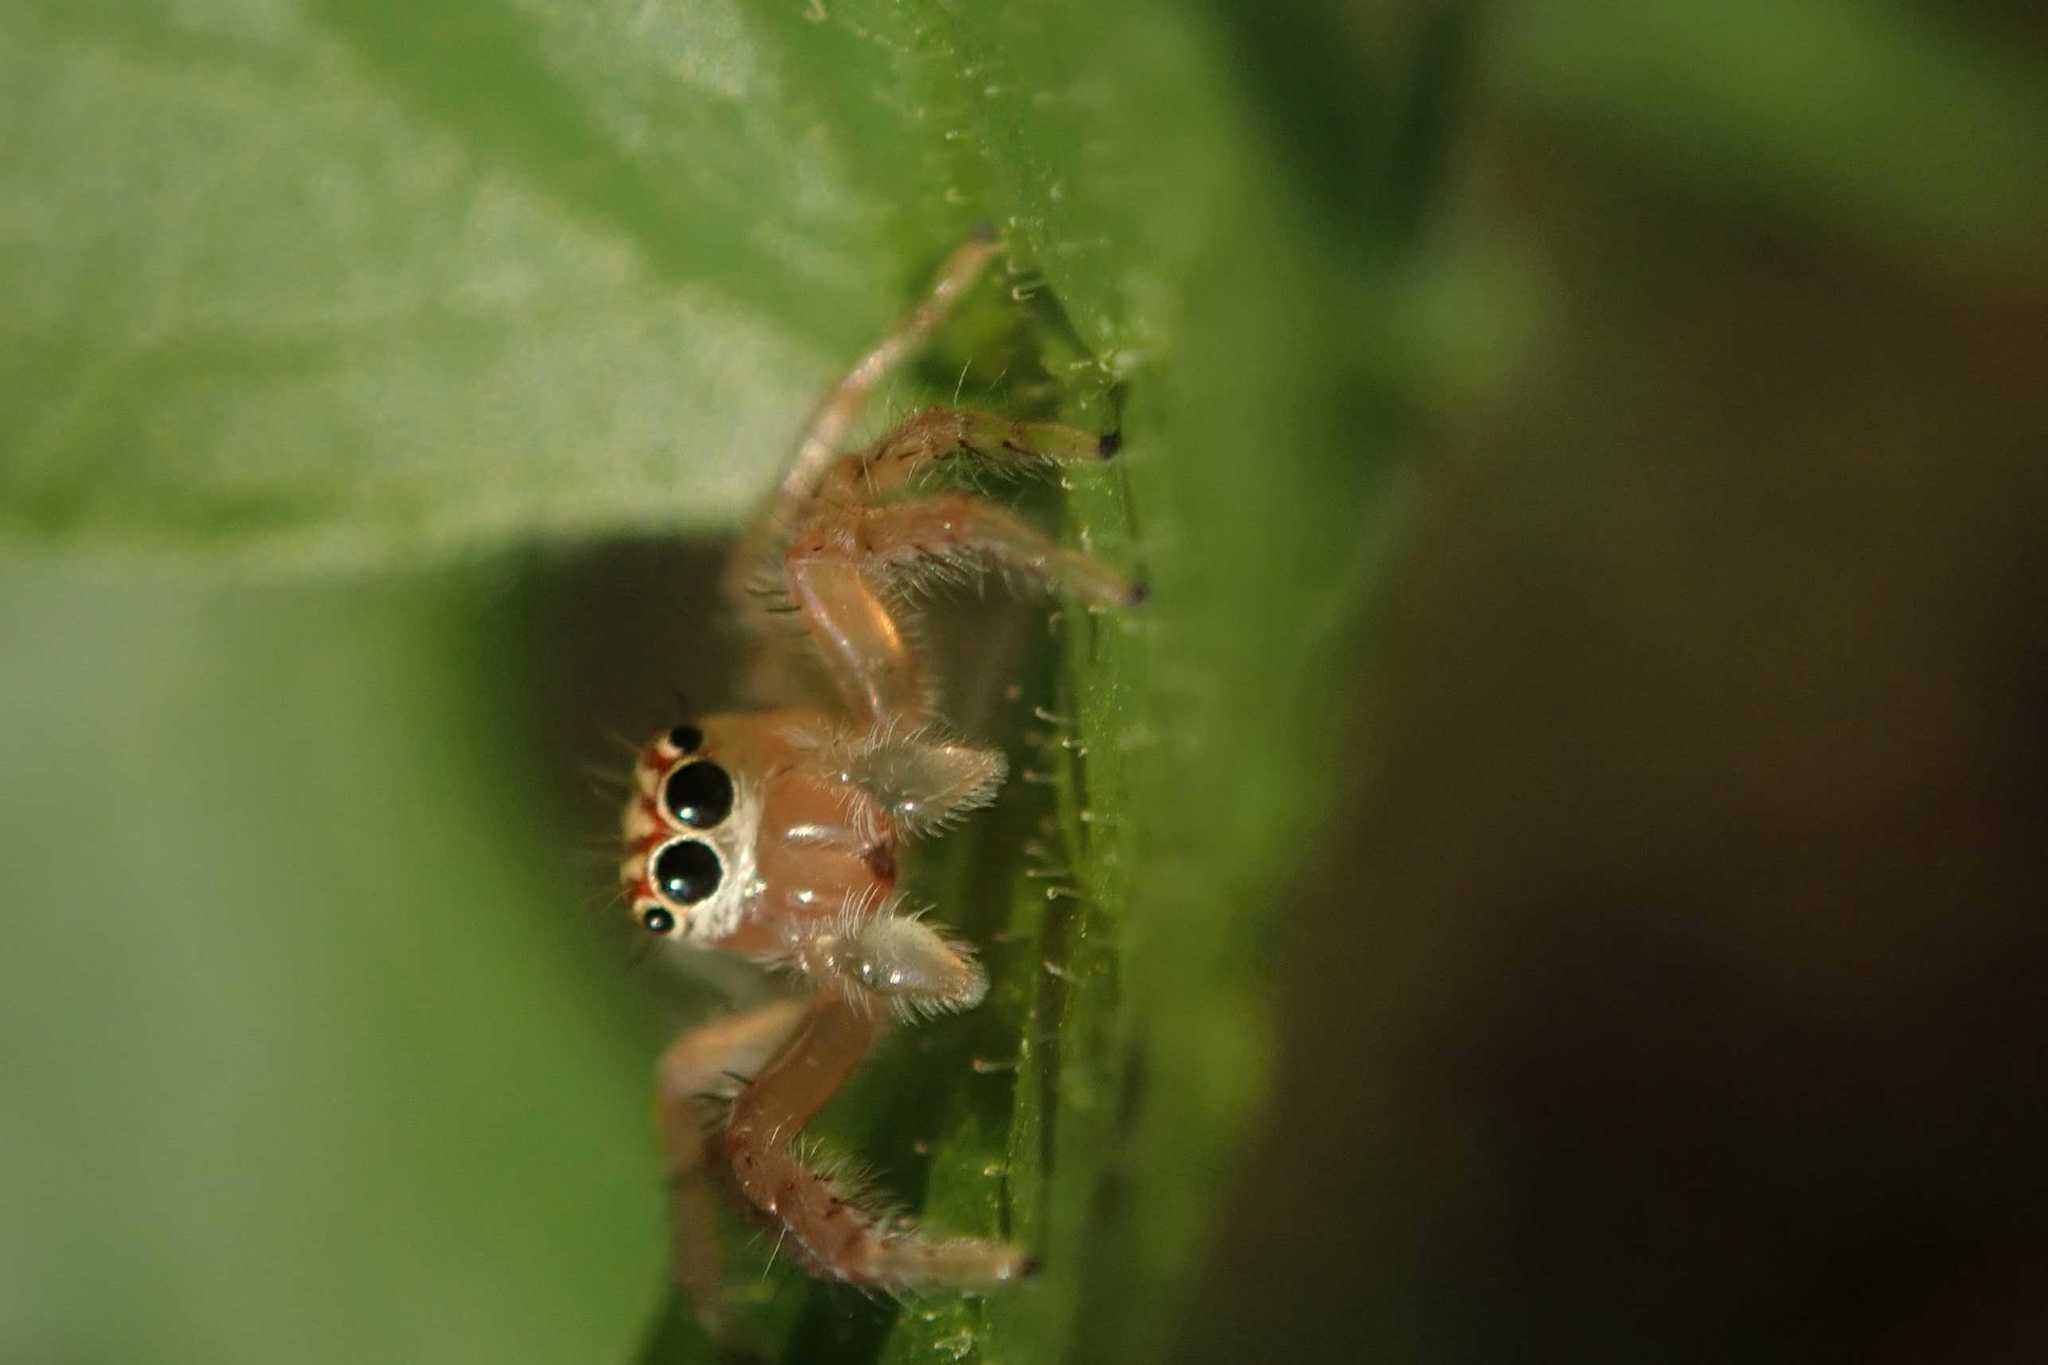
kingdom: Animalia
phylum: Arthropoda
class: Arachnida
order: Araneae
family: Salticidae
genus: Brancus
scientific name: Brancus mustelus
